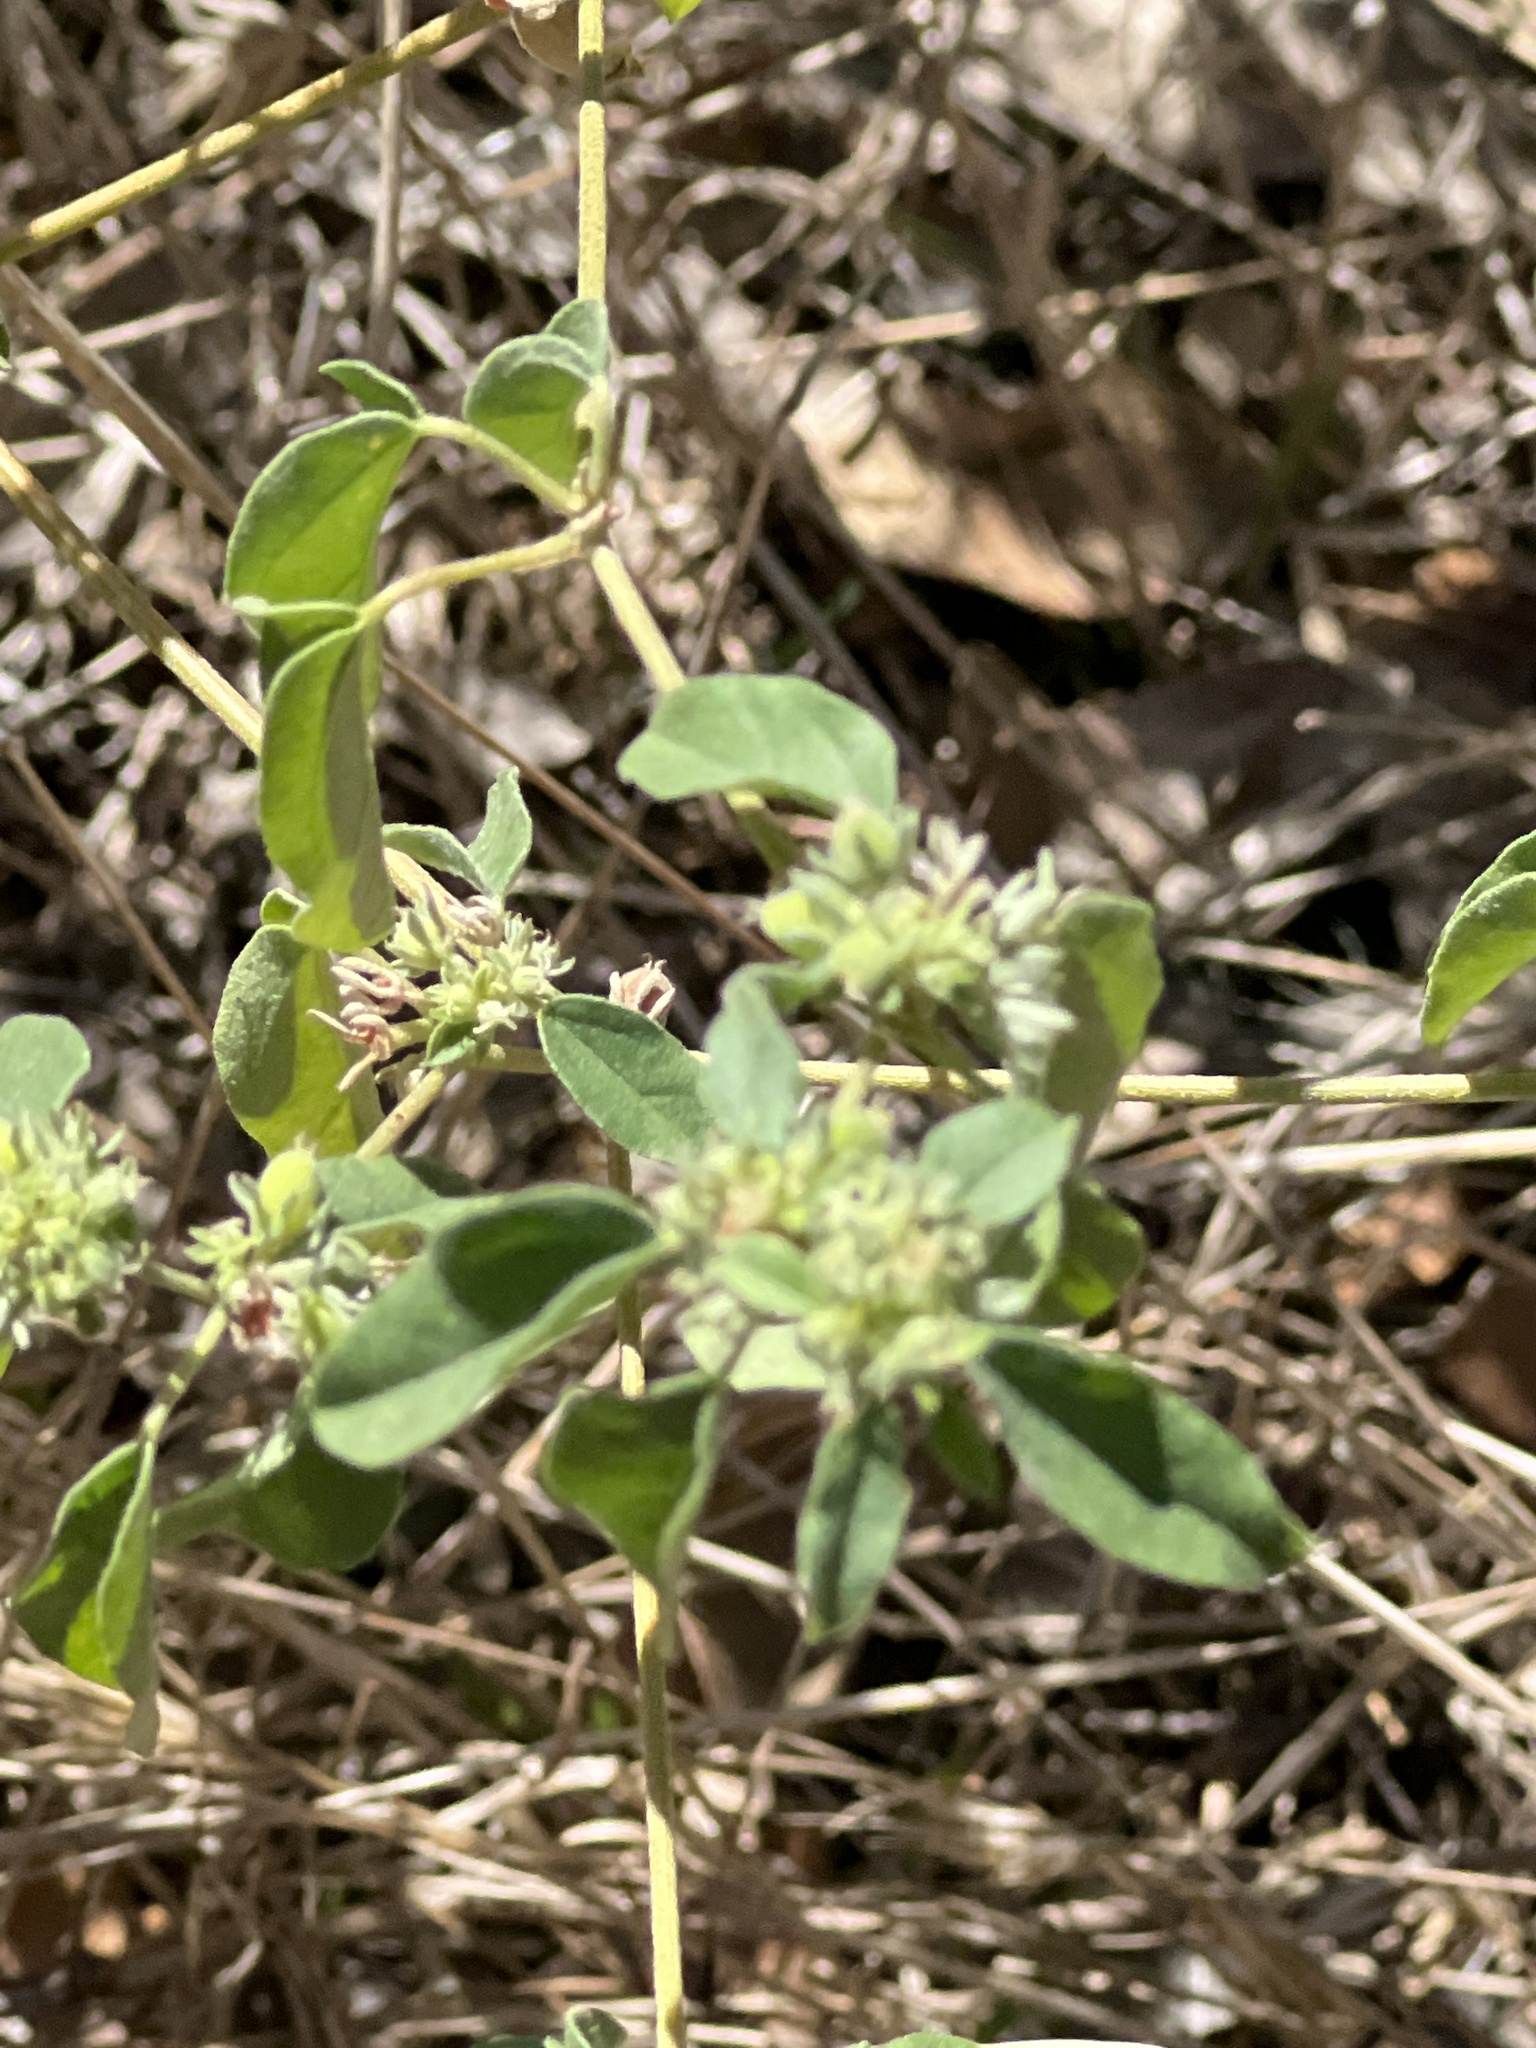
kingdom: Plantae
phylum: Tracheophyta
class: Magnoliopsida
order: Malpighiales
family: Euphorbiaceae
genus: Croton
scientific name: Croton monanthogynus
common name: One-seed croton
